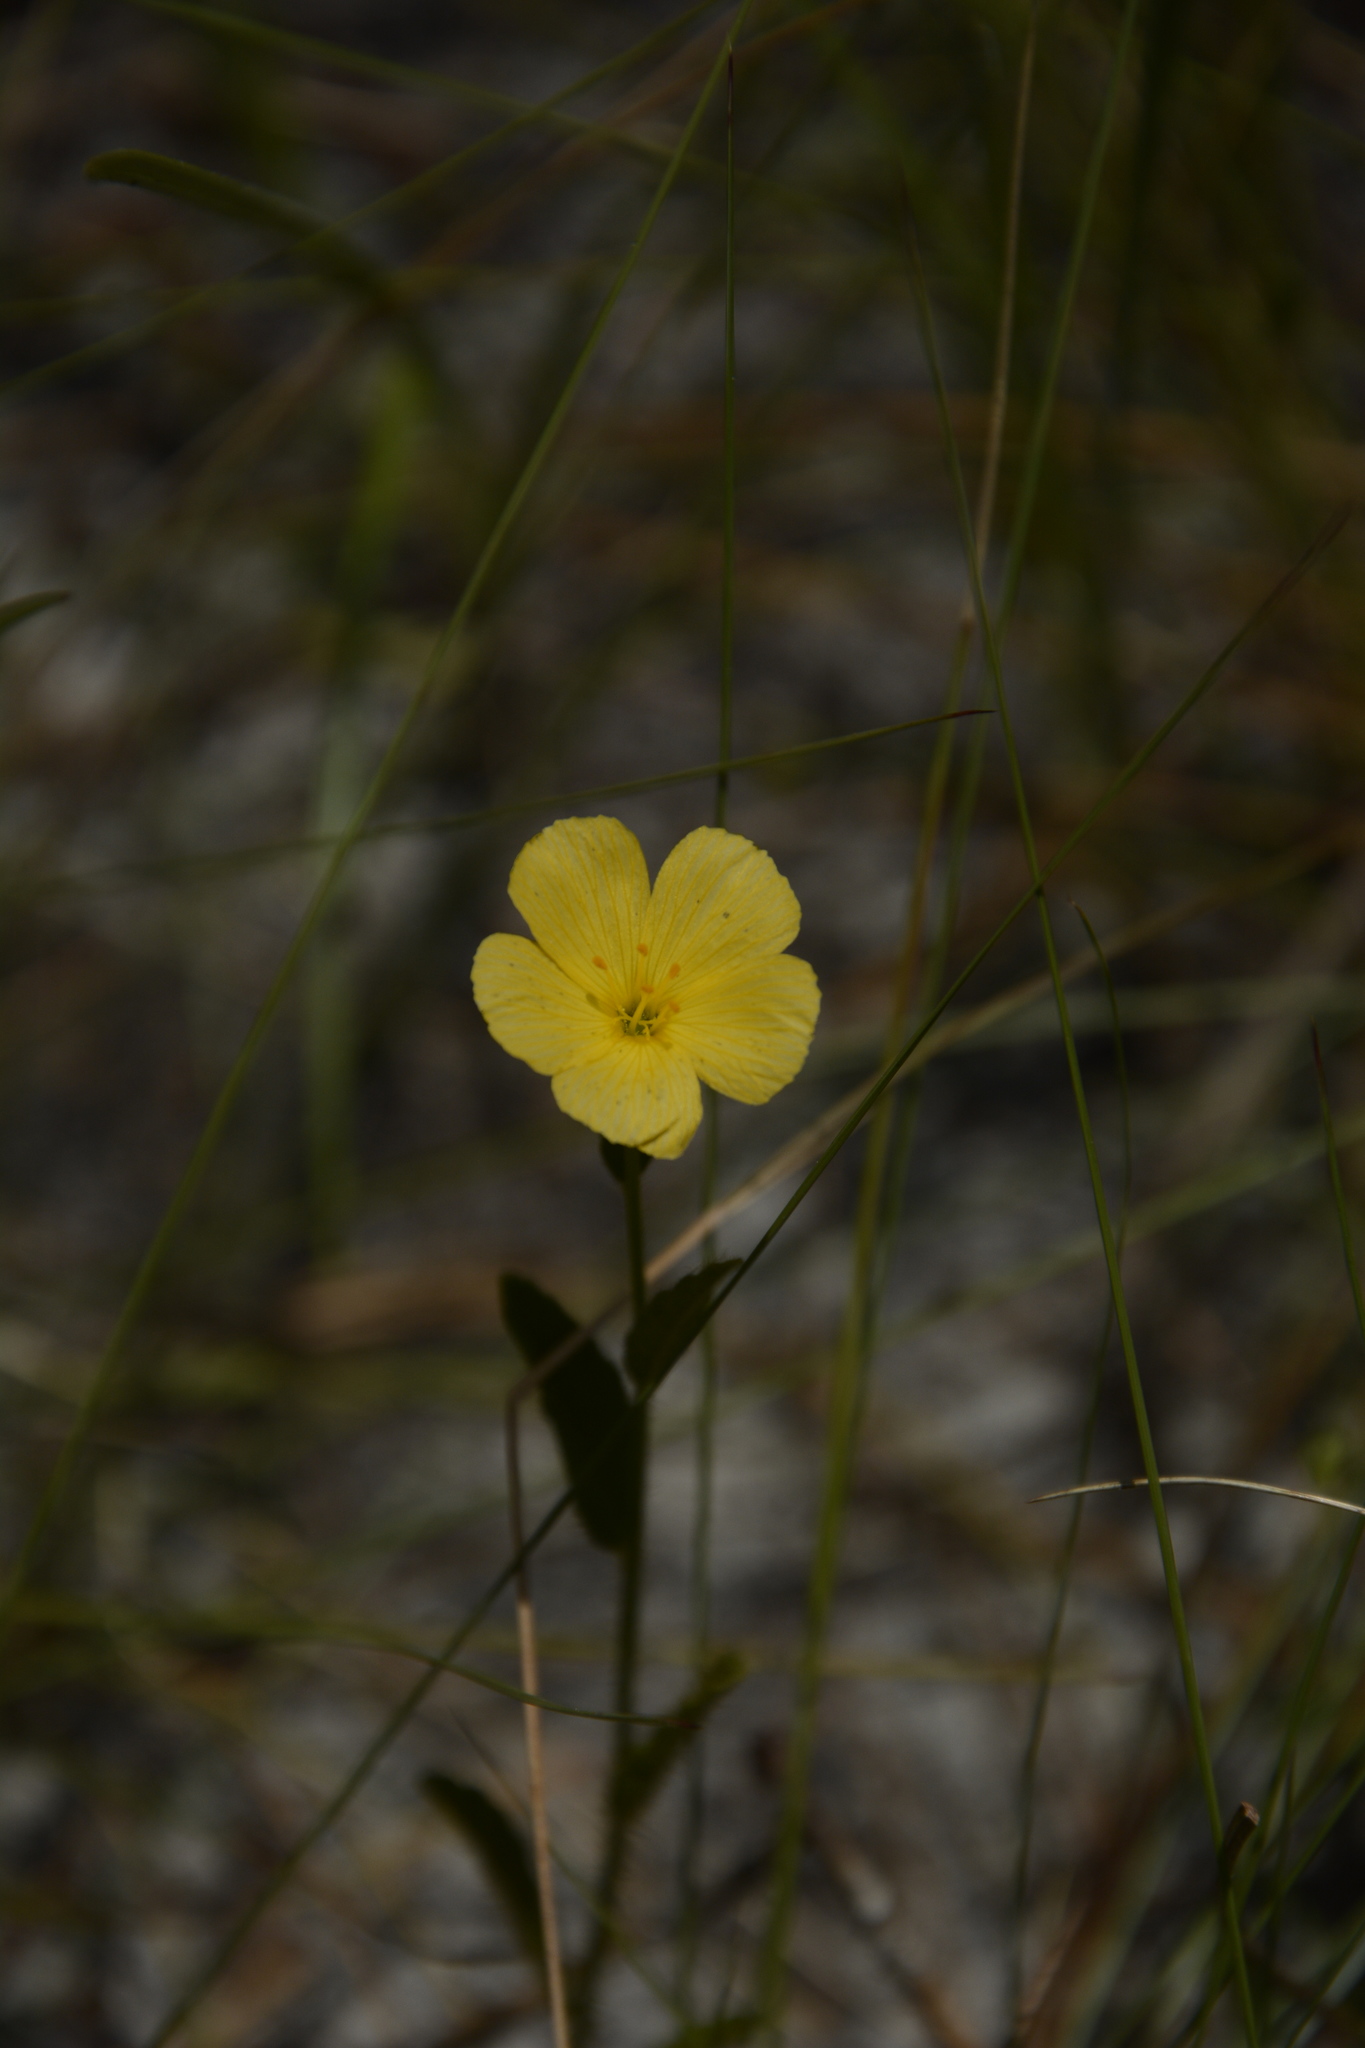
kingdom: Plantae
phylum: Tracheophyta
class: Magnoliopsida
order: Malpighiales
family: Turneraceae
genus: Piriqueta
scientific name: Piriqueta cistoides
